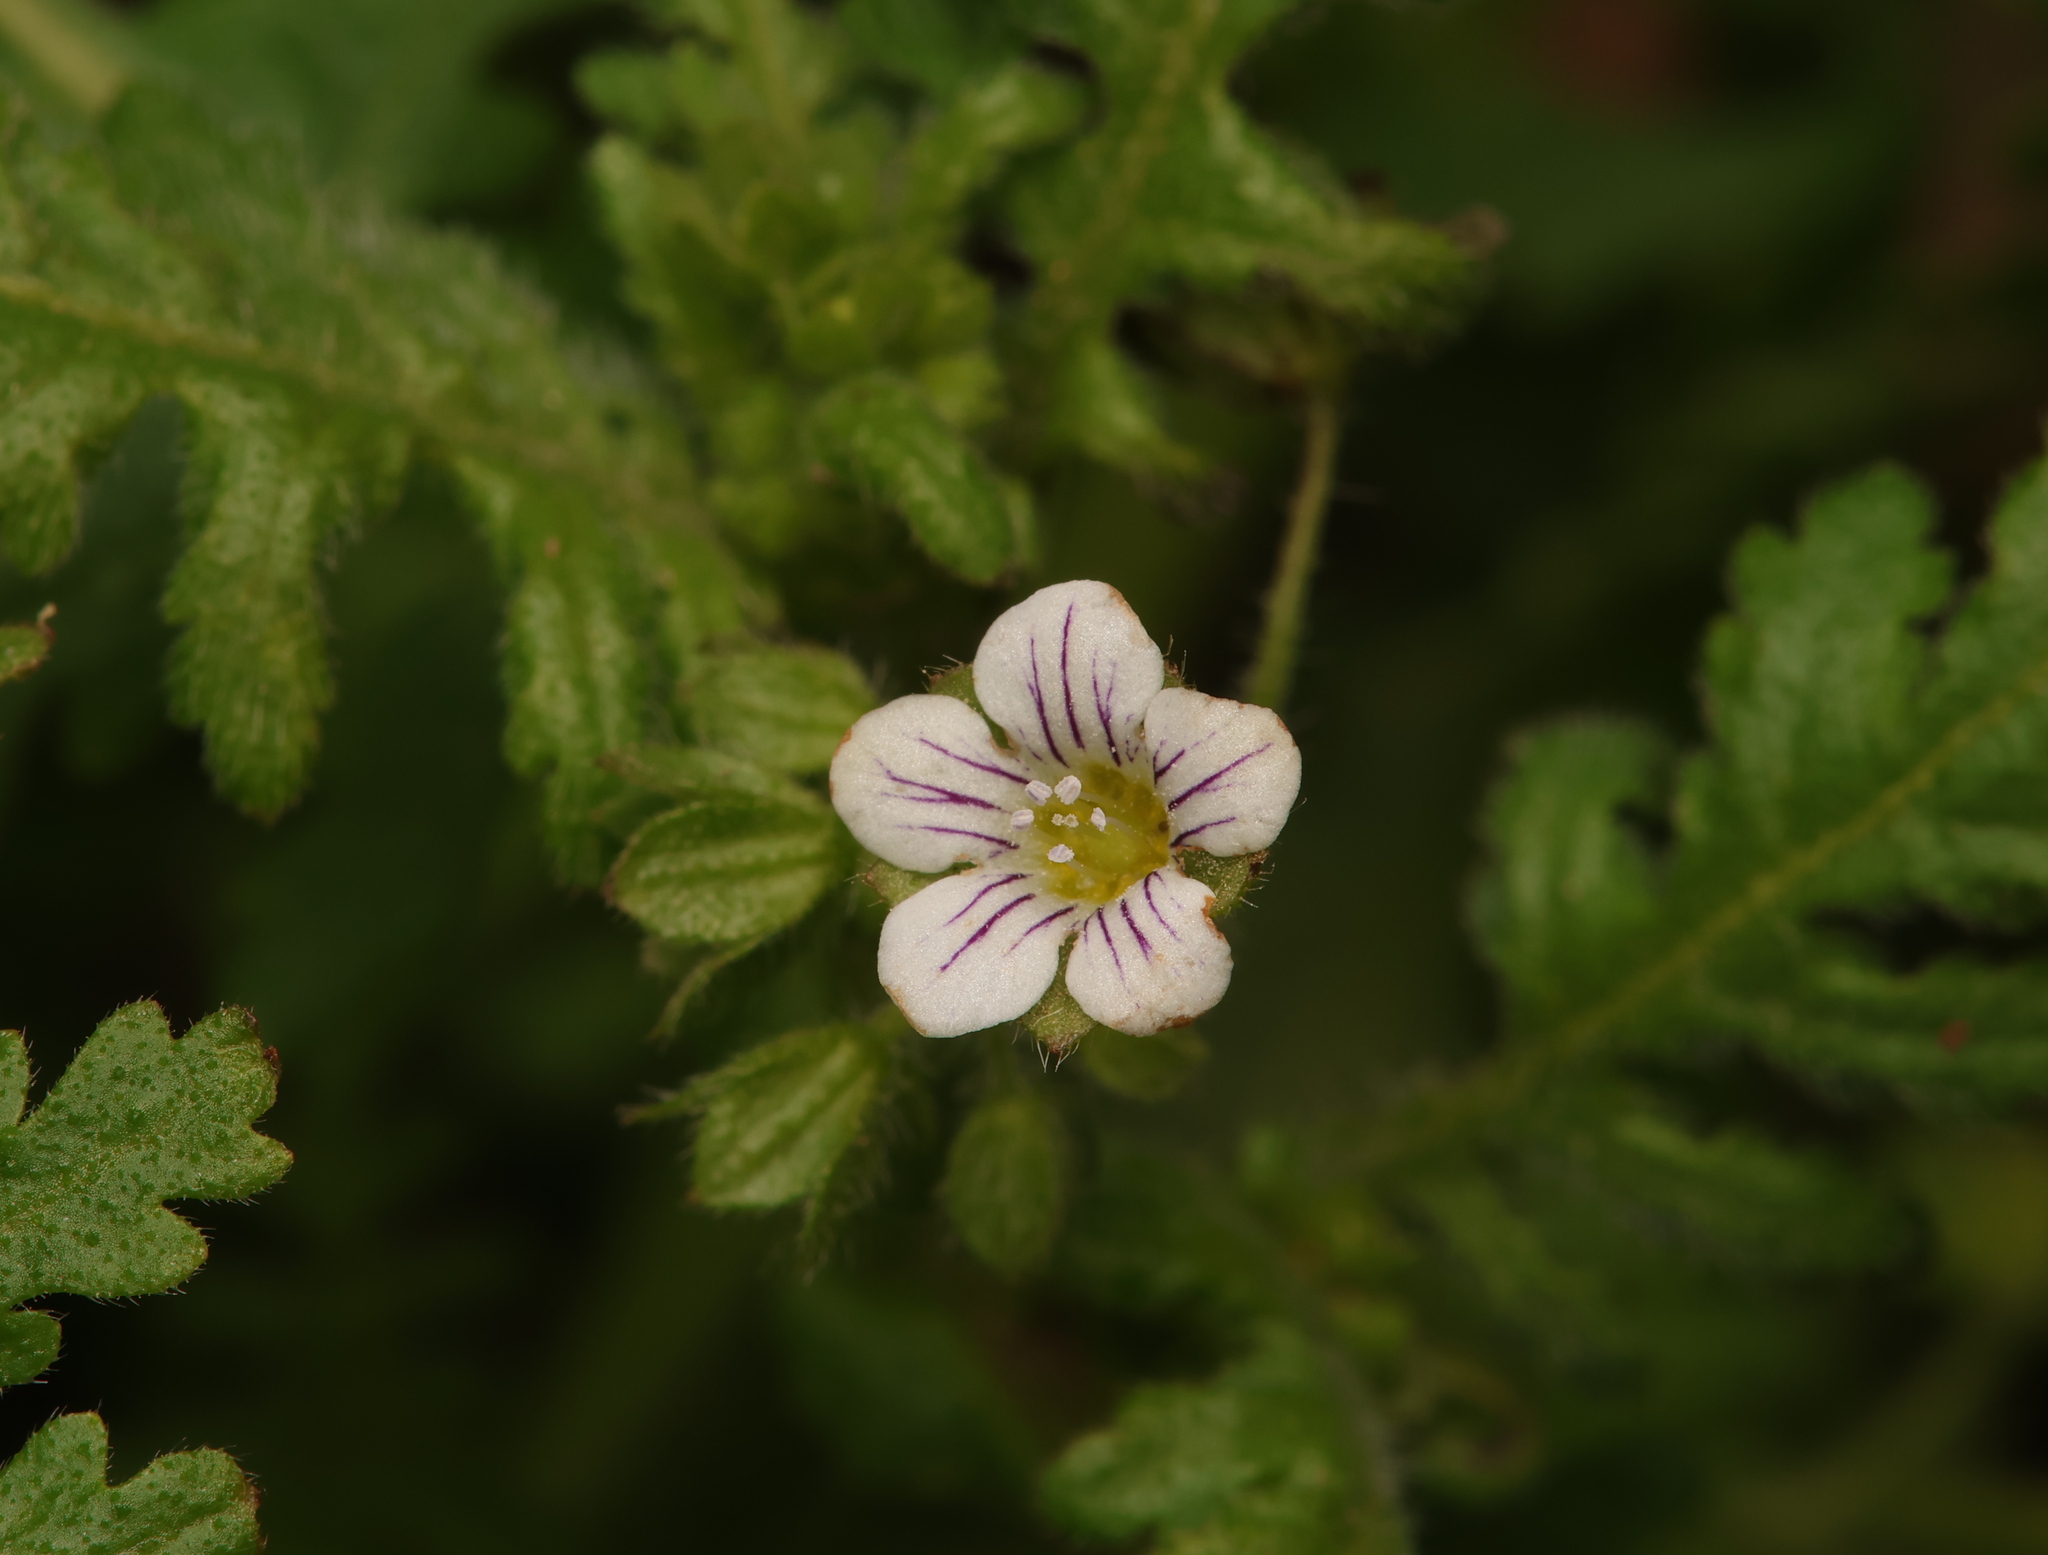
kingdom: Plantae
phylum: Tracheophyta
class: Magnoliopsida
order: Boraginales
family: Hydrophyllaceae
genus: Eucrypta
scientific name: Eucrypta chrysanthemifolia
